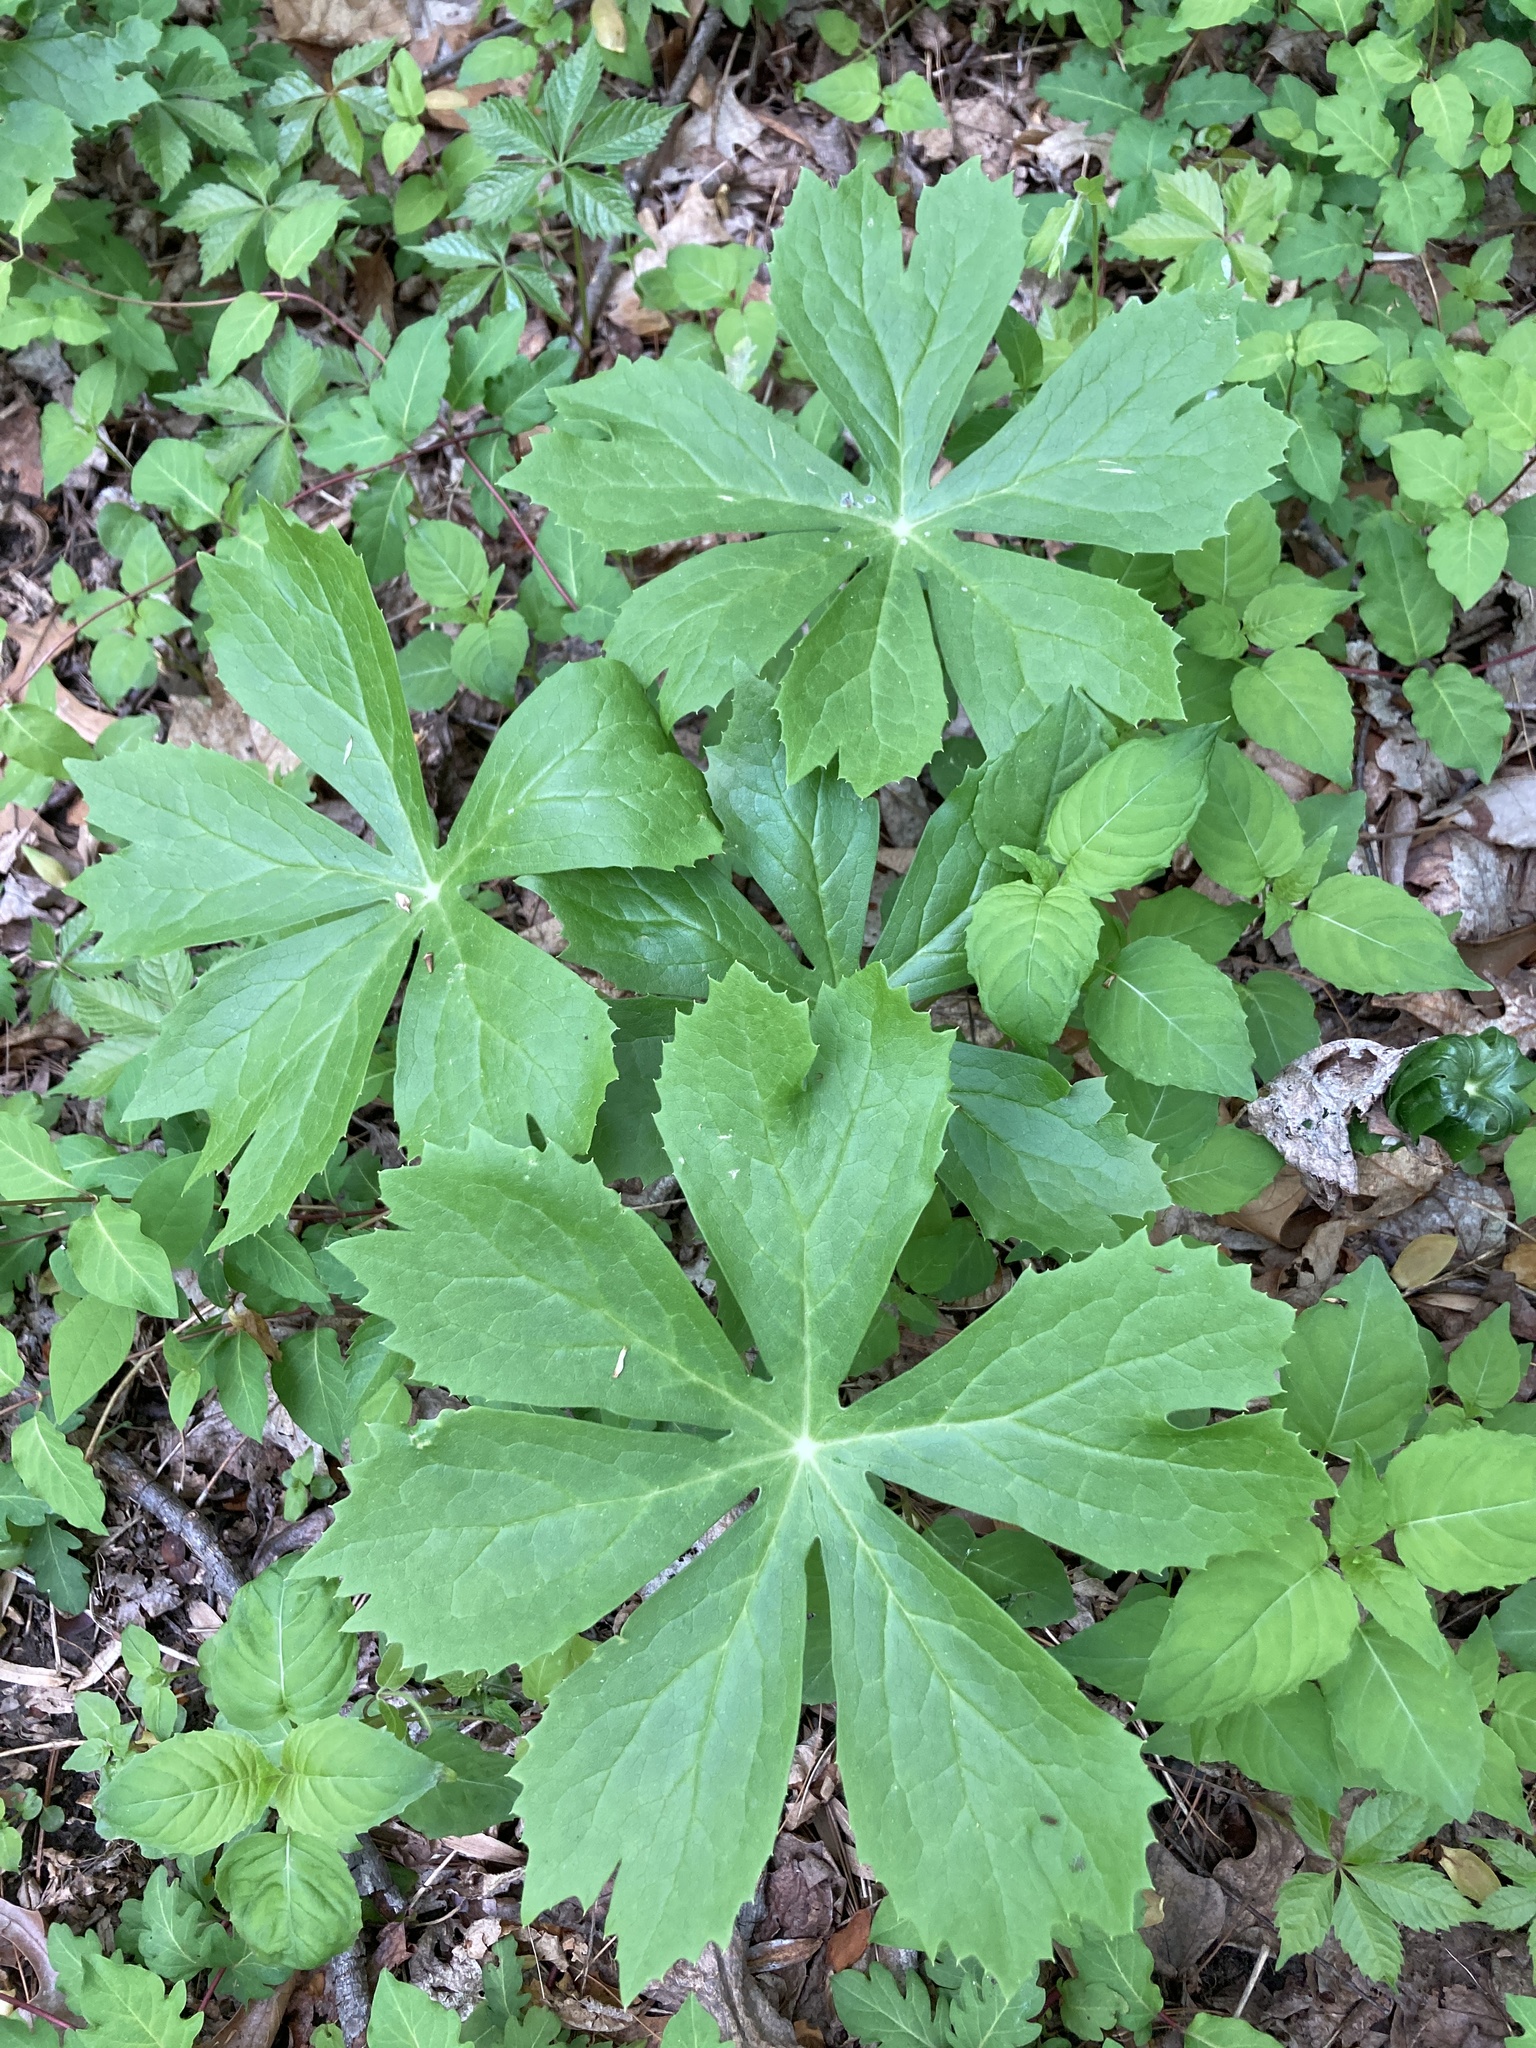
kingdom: Plantae
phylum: Tracheophyta
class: Magnoliopsida
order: Ranunculales
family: Berberidaceae
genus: Podophyllum
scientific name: Podophyllum peltatum
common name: Wild mandrake
